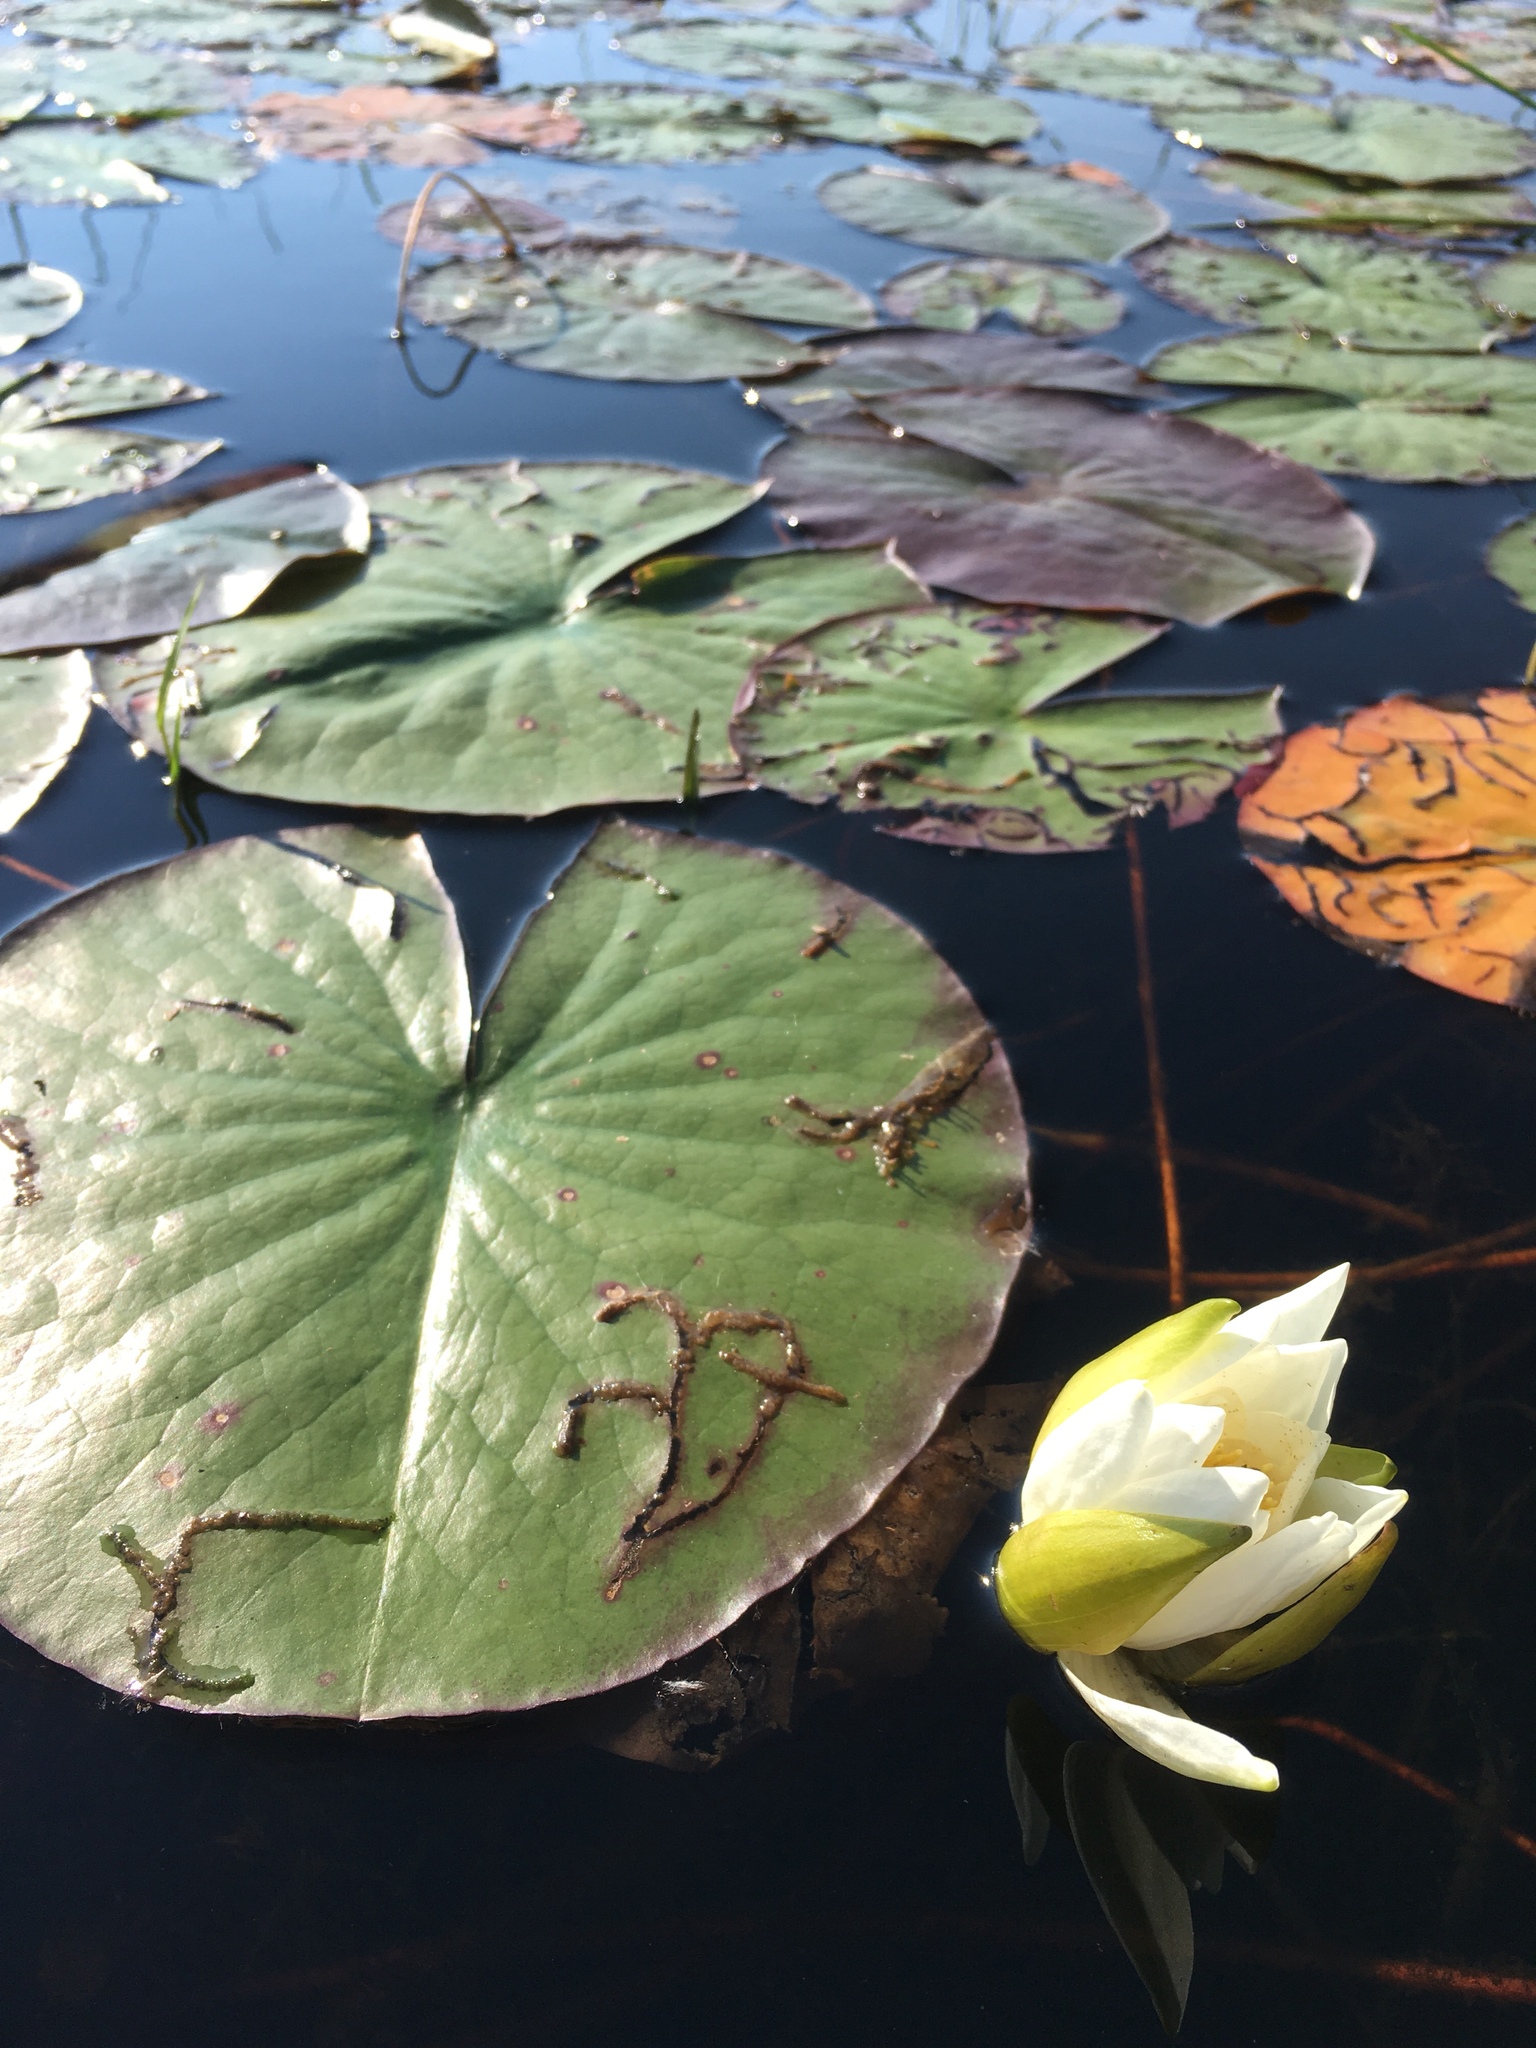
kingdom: Plantae
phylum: Tracheophyta
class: Magnoliopsida
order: Nymphaeales
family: Nymphaeaceae
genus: Nymphaea
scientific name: Nymphaea odorata
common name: Fragrant water-lily
